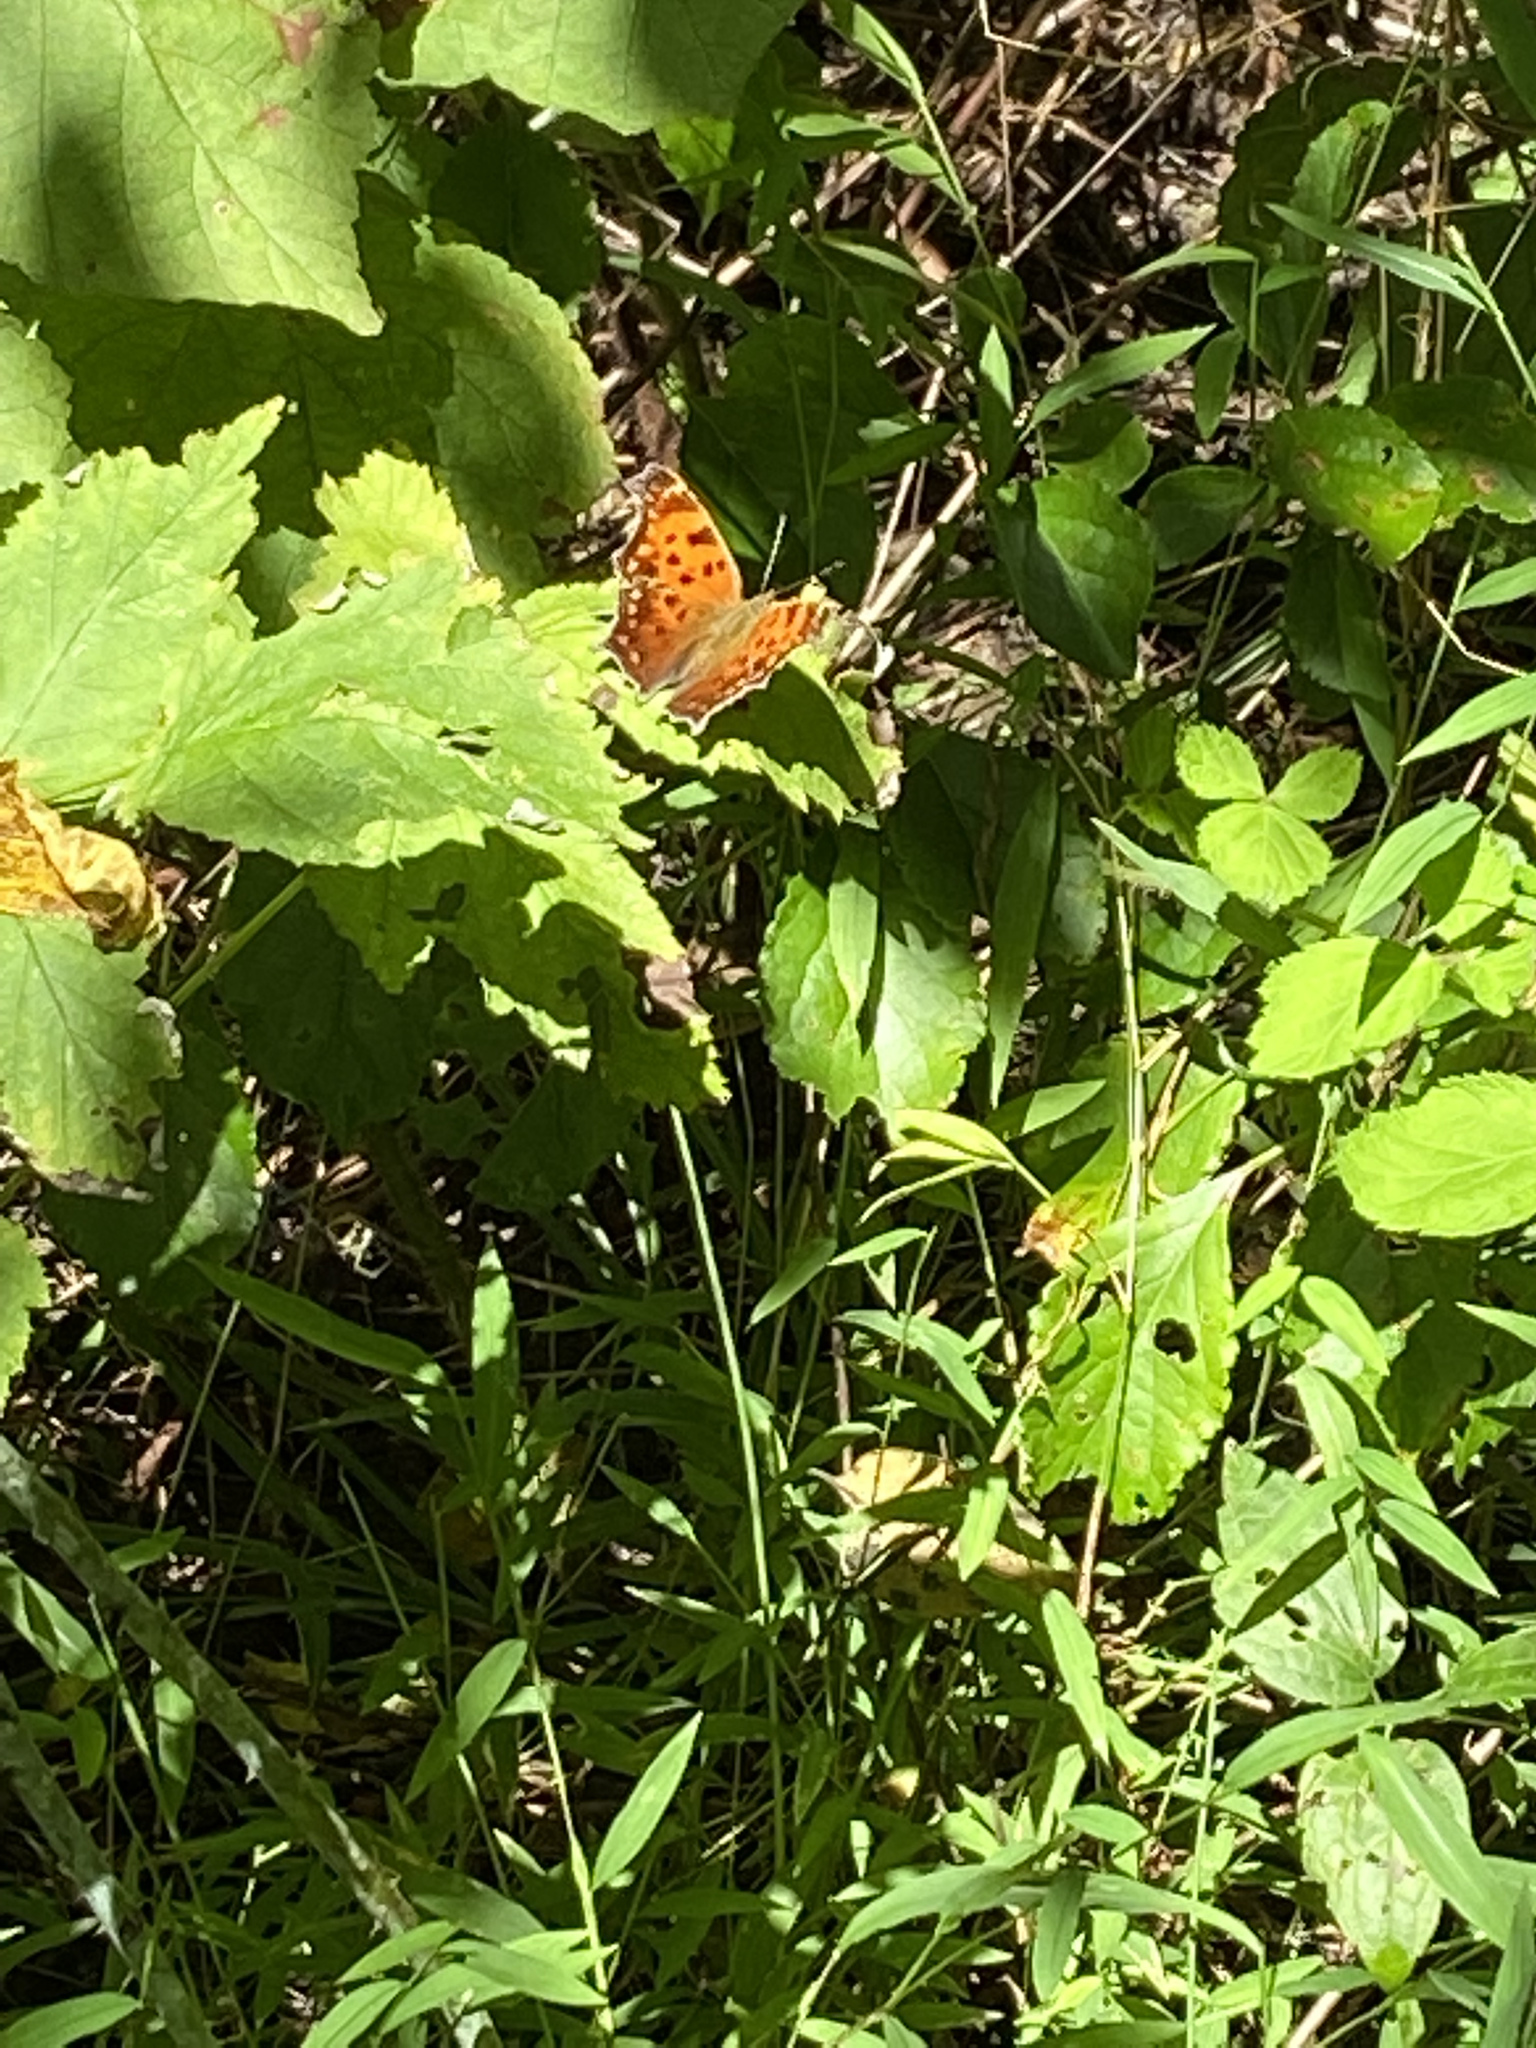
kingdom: Animalia
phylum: Arthropoda
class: Insecta
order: Lepidoptera
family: Nymphalidae
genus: Polygonia
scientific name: Polygonia comma
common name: Eastern comma
